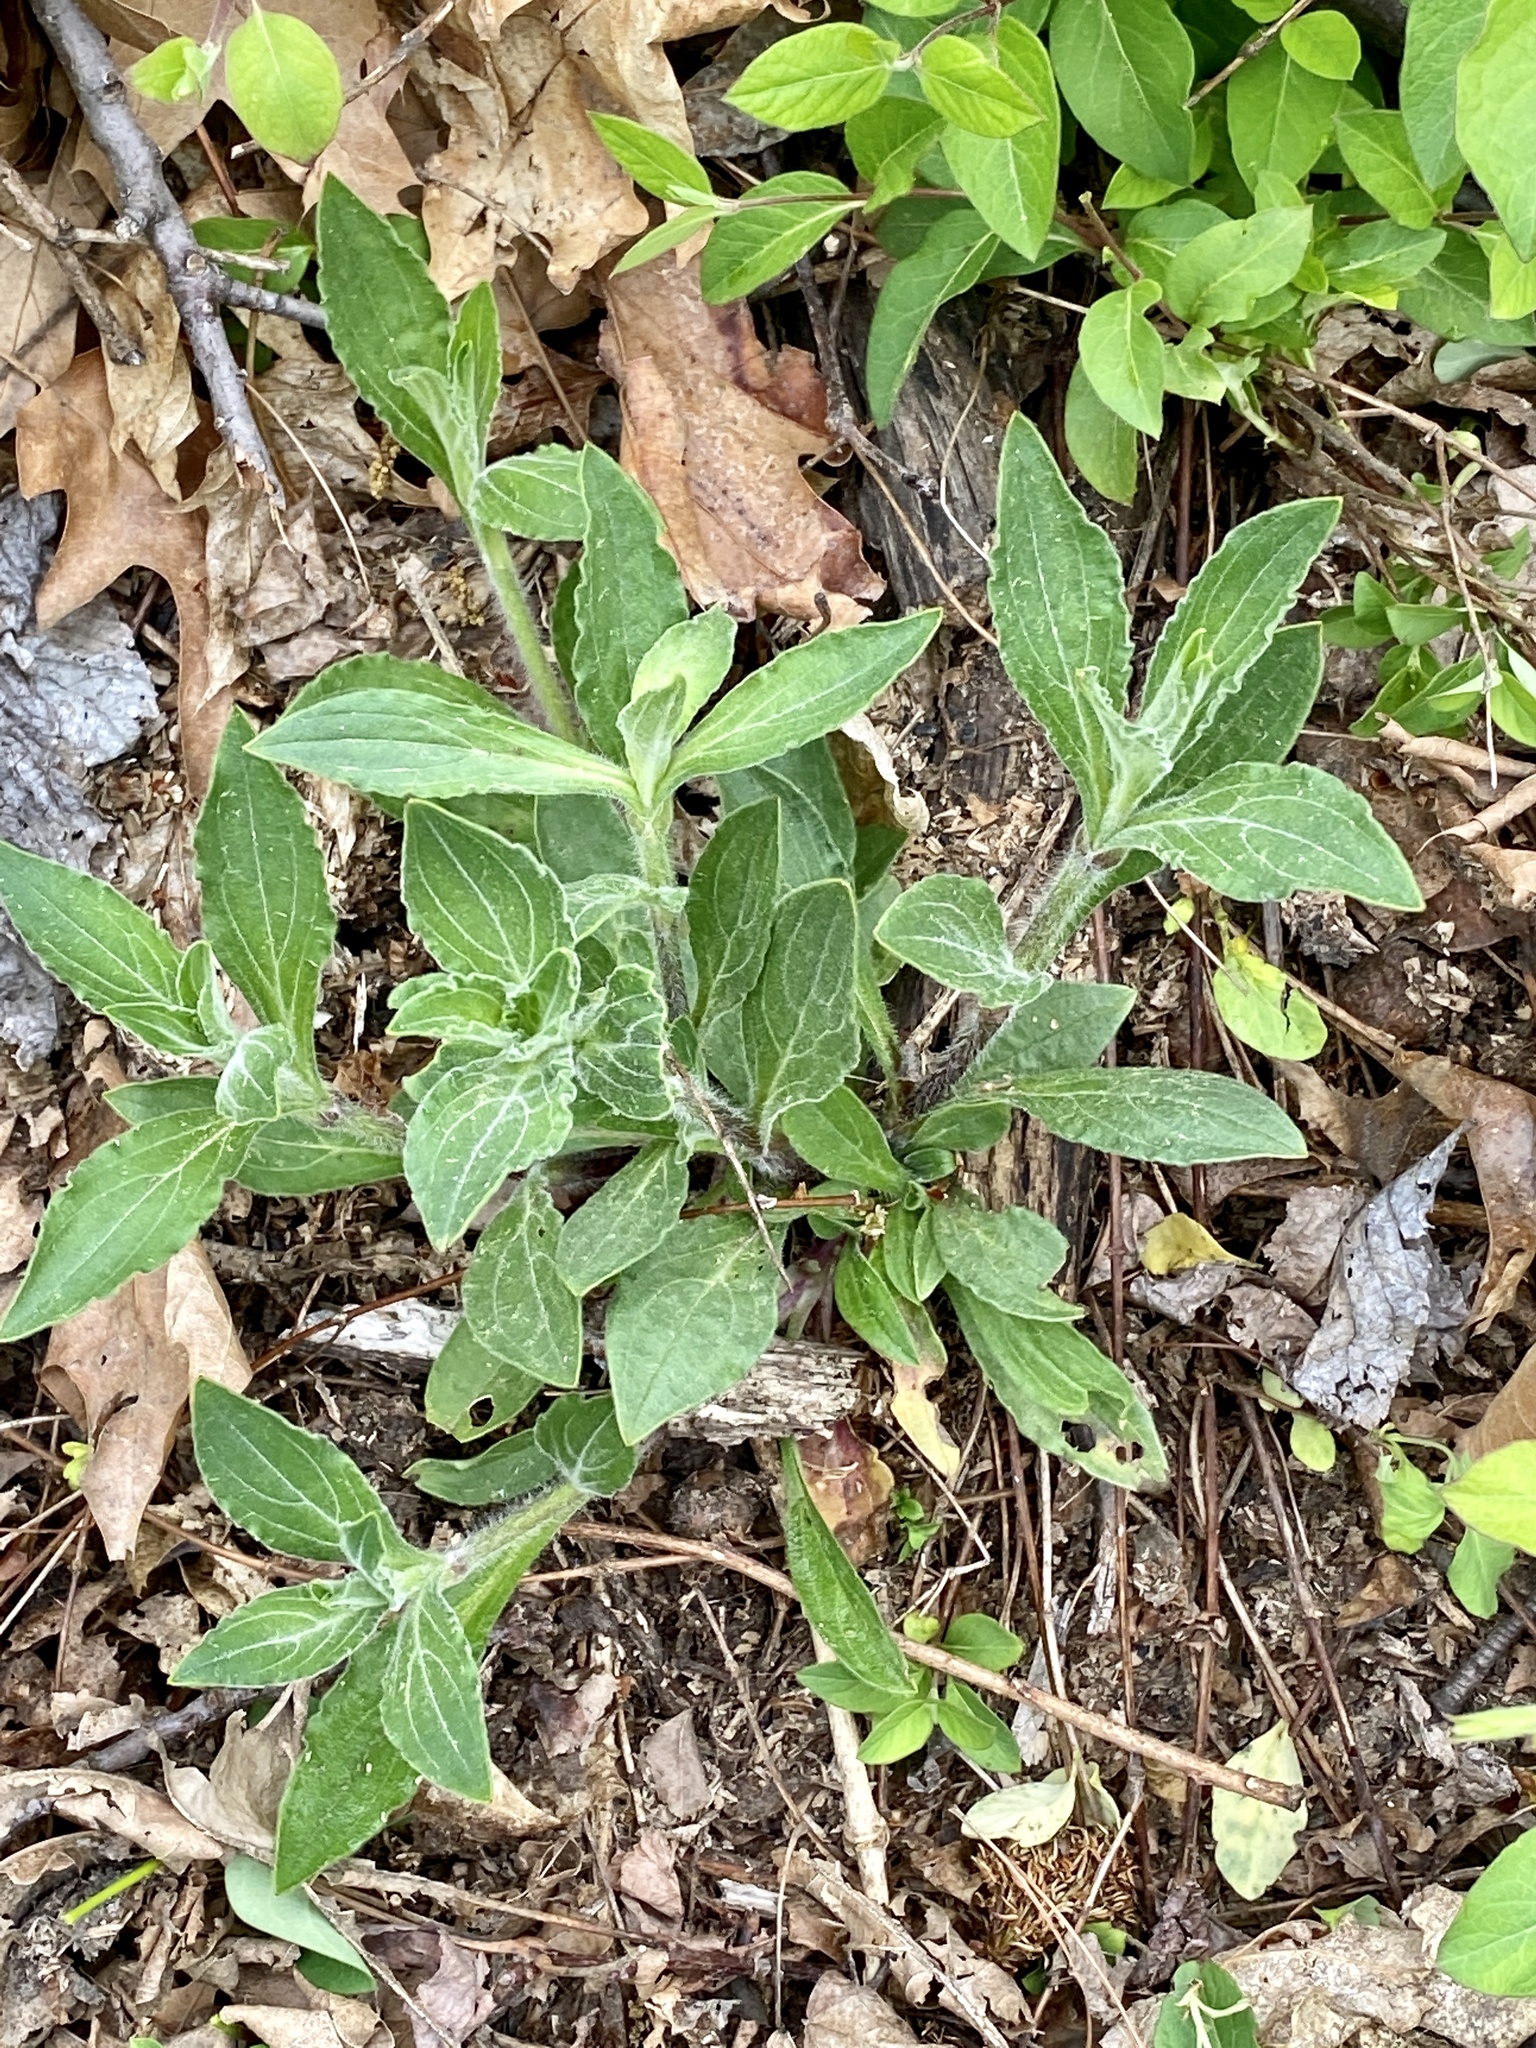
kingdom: Plantae
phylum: Tracheophyta
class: Magnoliopsida
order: Caryophyllales
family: Caryophyllaceae
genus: Silene
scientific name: Silene latifolia
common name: White campion
